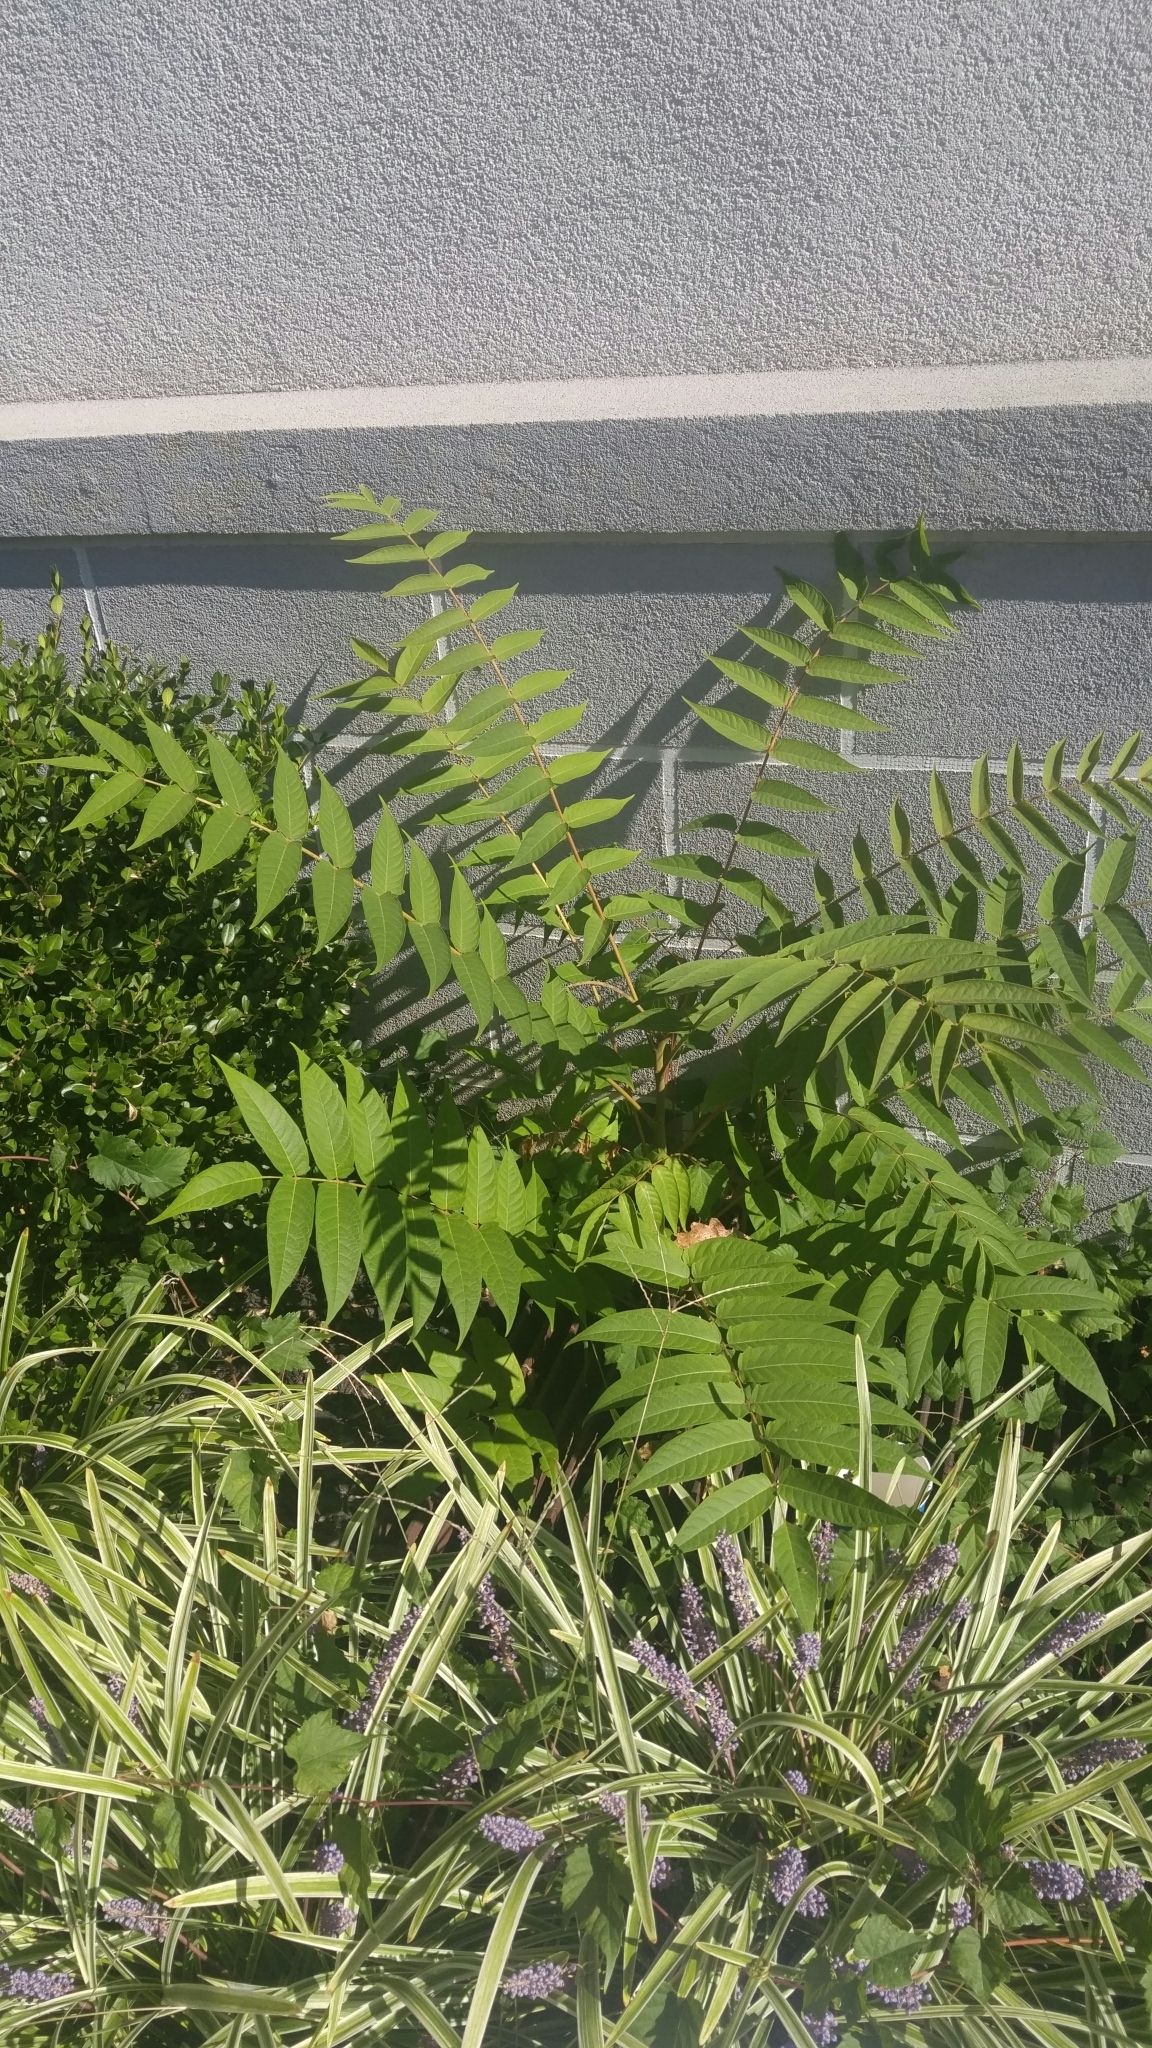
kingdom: Plantae
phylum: Tracheophyta
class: Magnoliopsida
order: Sapindales
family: Simaroubaceae
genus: Ailanthus
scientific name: Ailanthus altissima
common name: Tree-of-heaven
